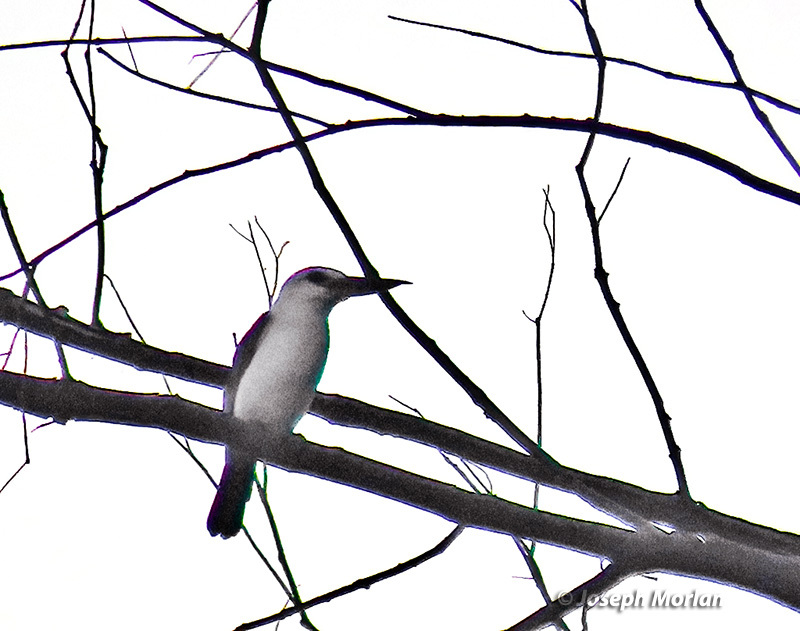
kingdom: Animalia
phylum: Chordata
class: Aves
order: Coraciiformes
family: Alcedinidae
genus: Todiramphus
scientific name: Todiramphus saurophagus
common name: Beach kingfisher
